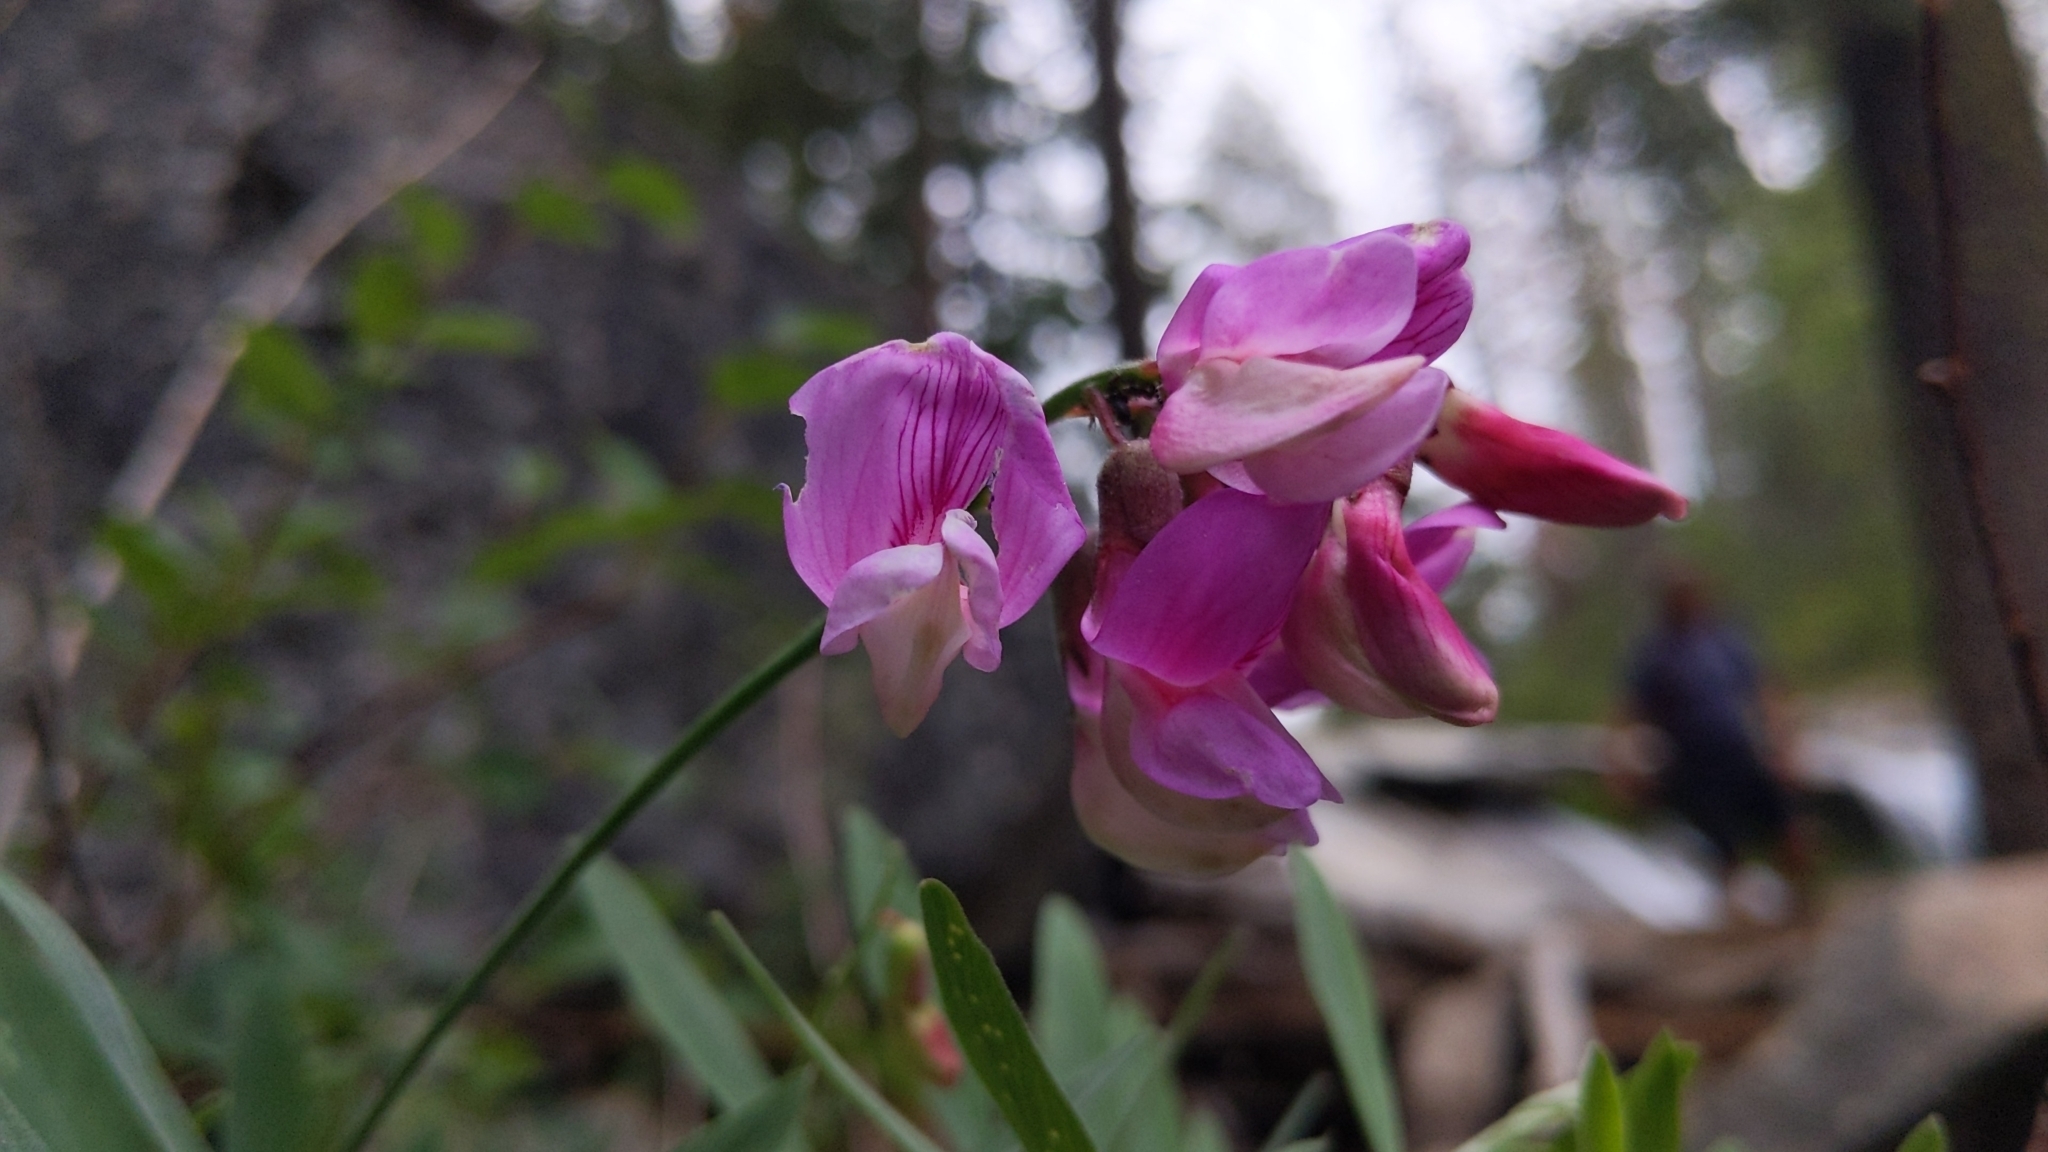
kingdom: Plantae
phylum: Tracheophyta
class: Magnoliopsida
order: Fabales
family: Fabaceae
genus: Lathyrus
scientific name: Lathyrus jepsonii
